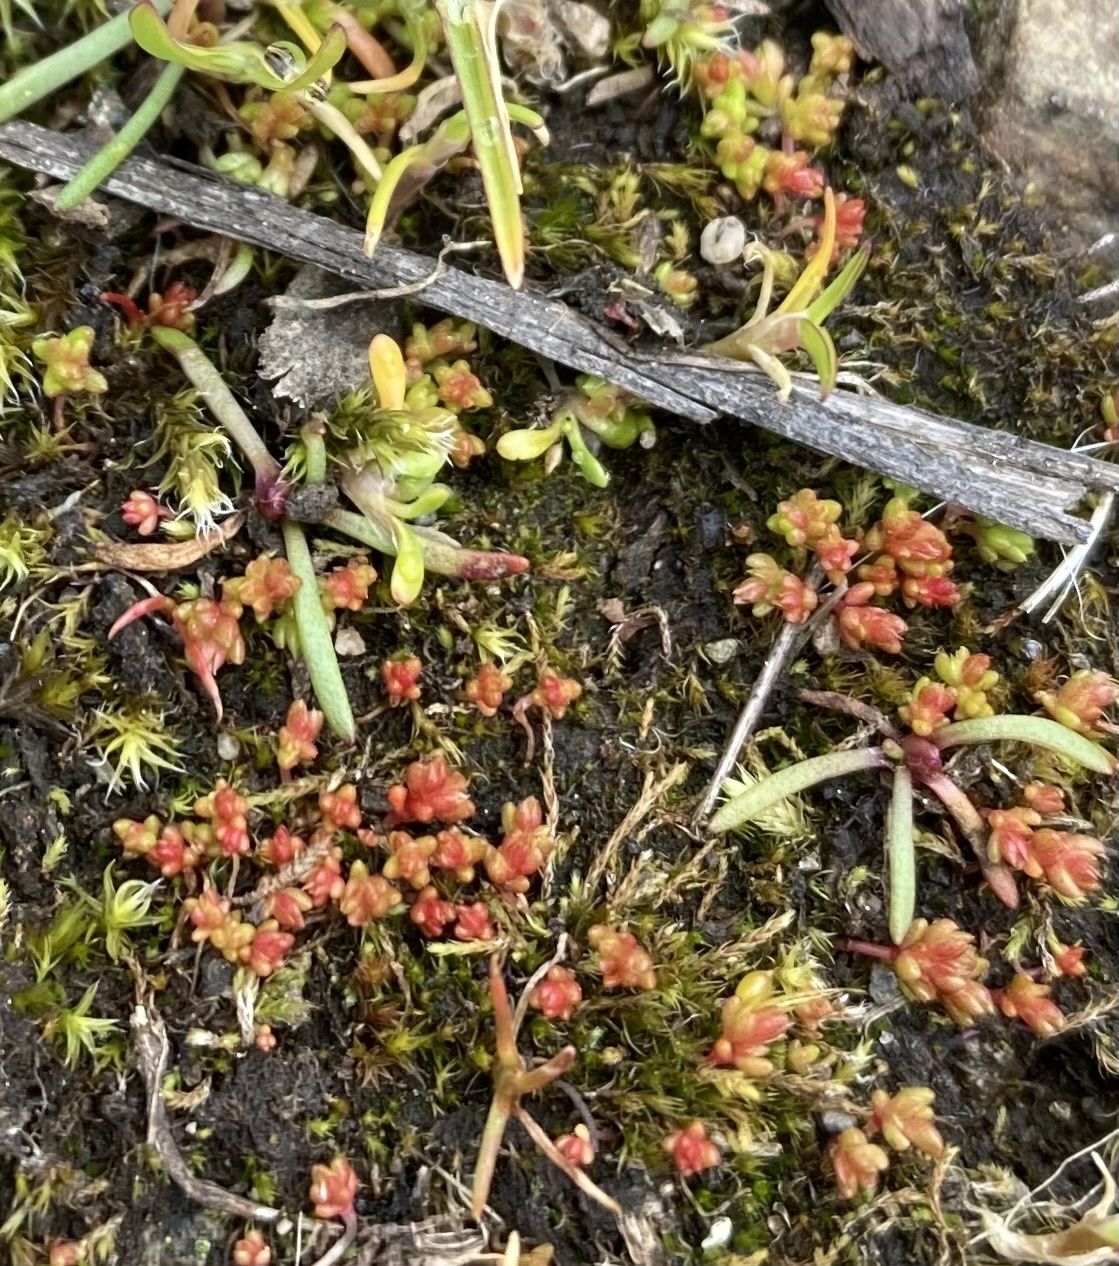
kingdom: Plantae
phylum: Tracheophyta
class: Magnoliopsida
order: Saxifragales
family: Crassulaceae
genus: Crassula
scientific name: Crassula tillaea
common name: Mossy stonecrop
